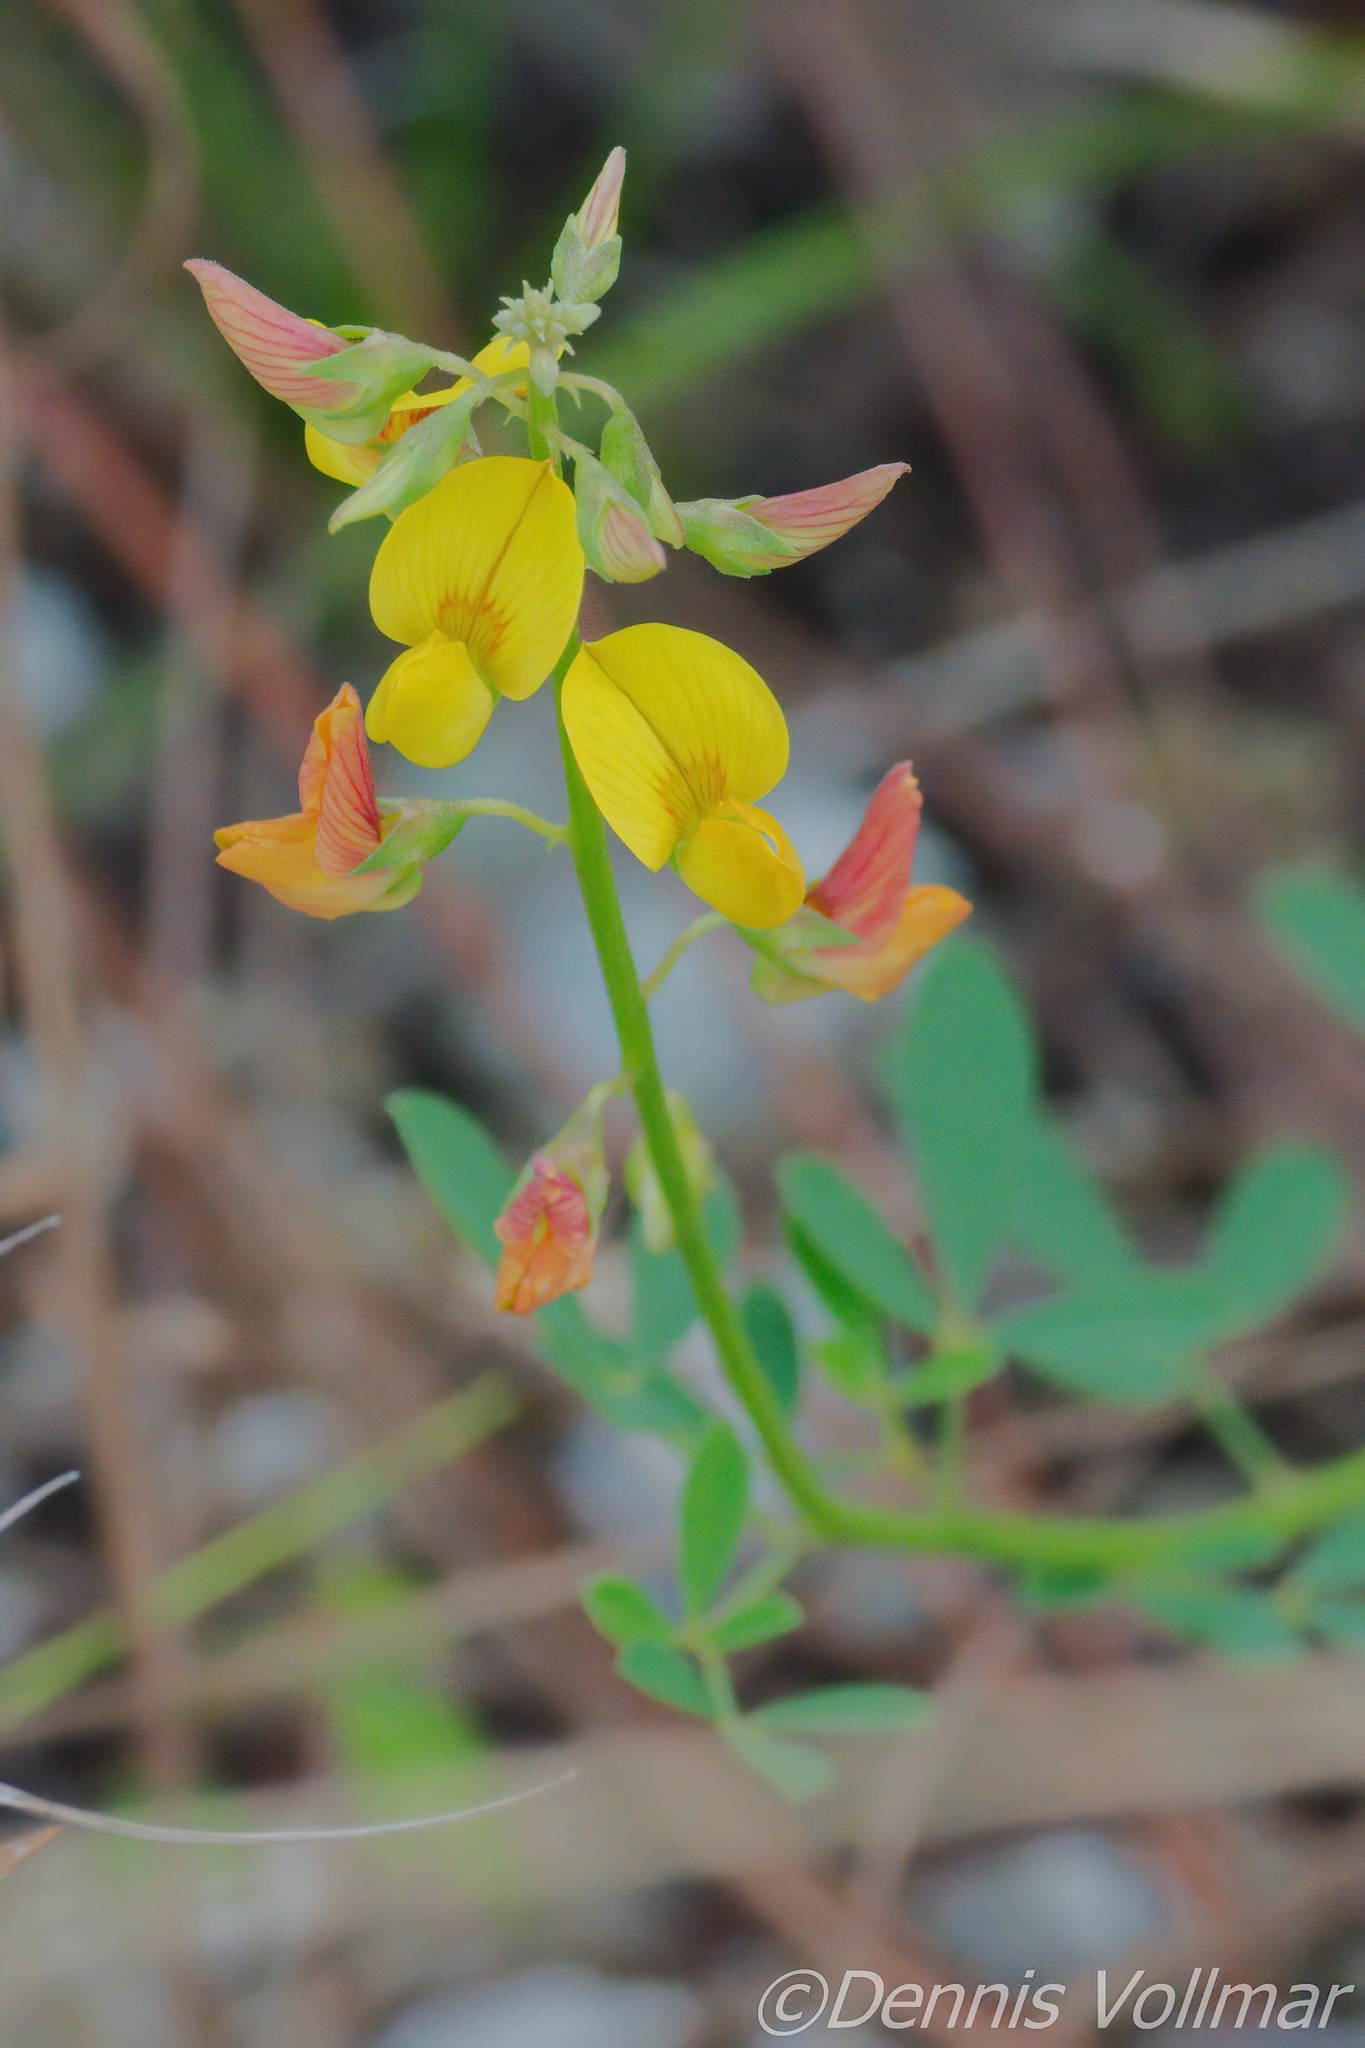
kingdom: Plantae
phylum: Tracheophyta
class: Magnoliopsida
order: Fabales
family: Fabaceae
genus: Crotalaria
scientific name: Crotalaria pumila
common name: Low rattlebox
